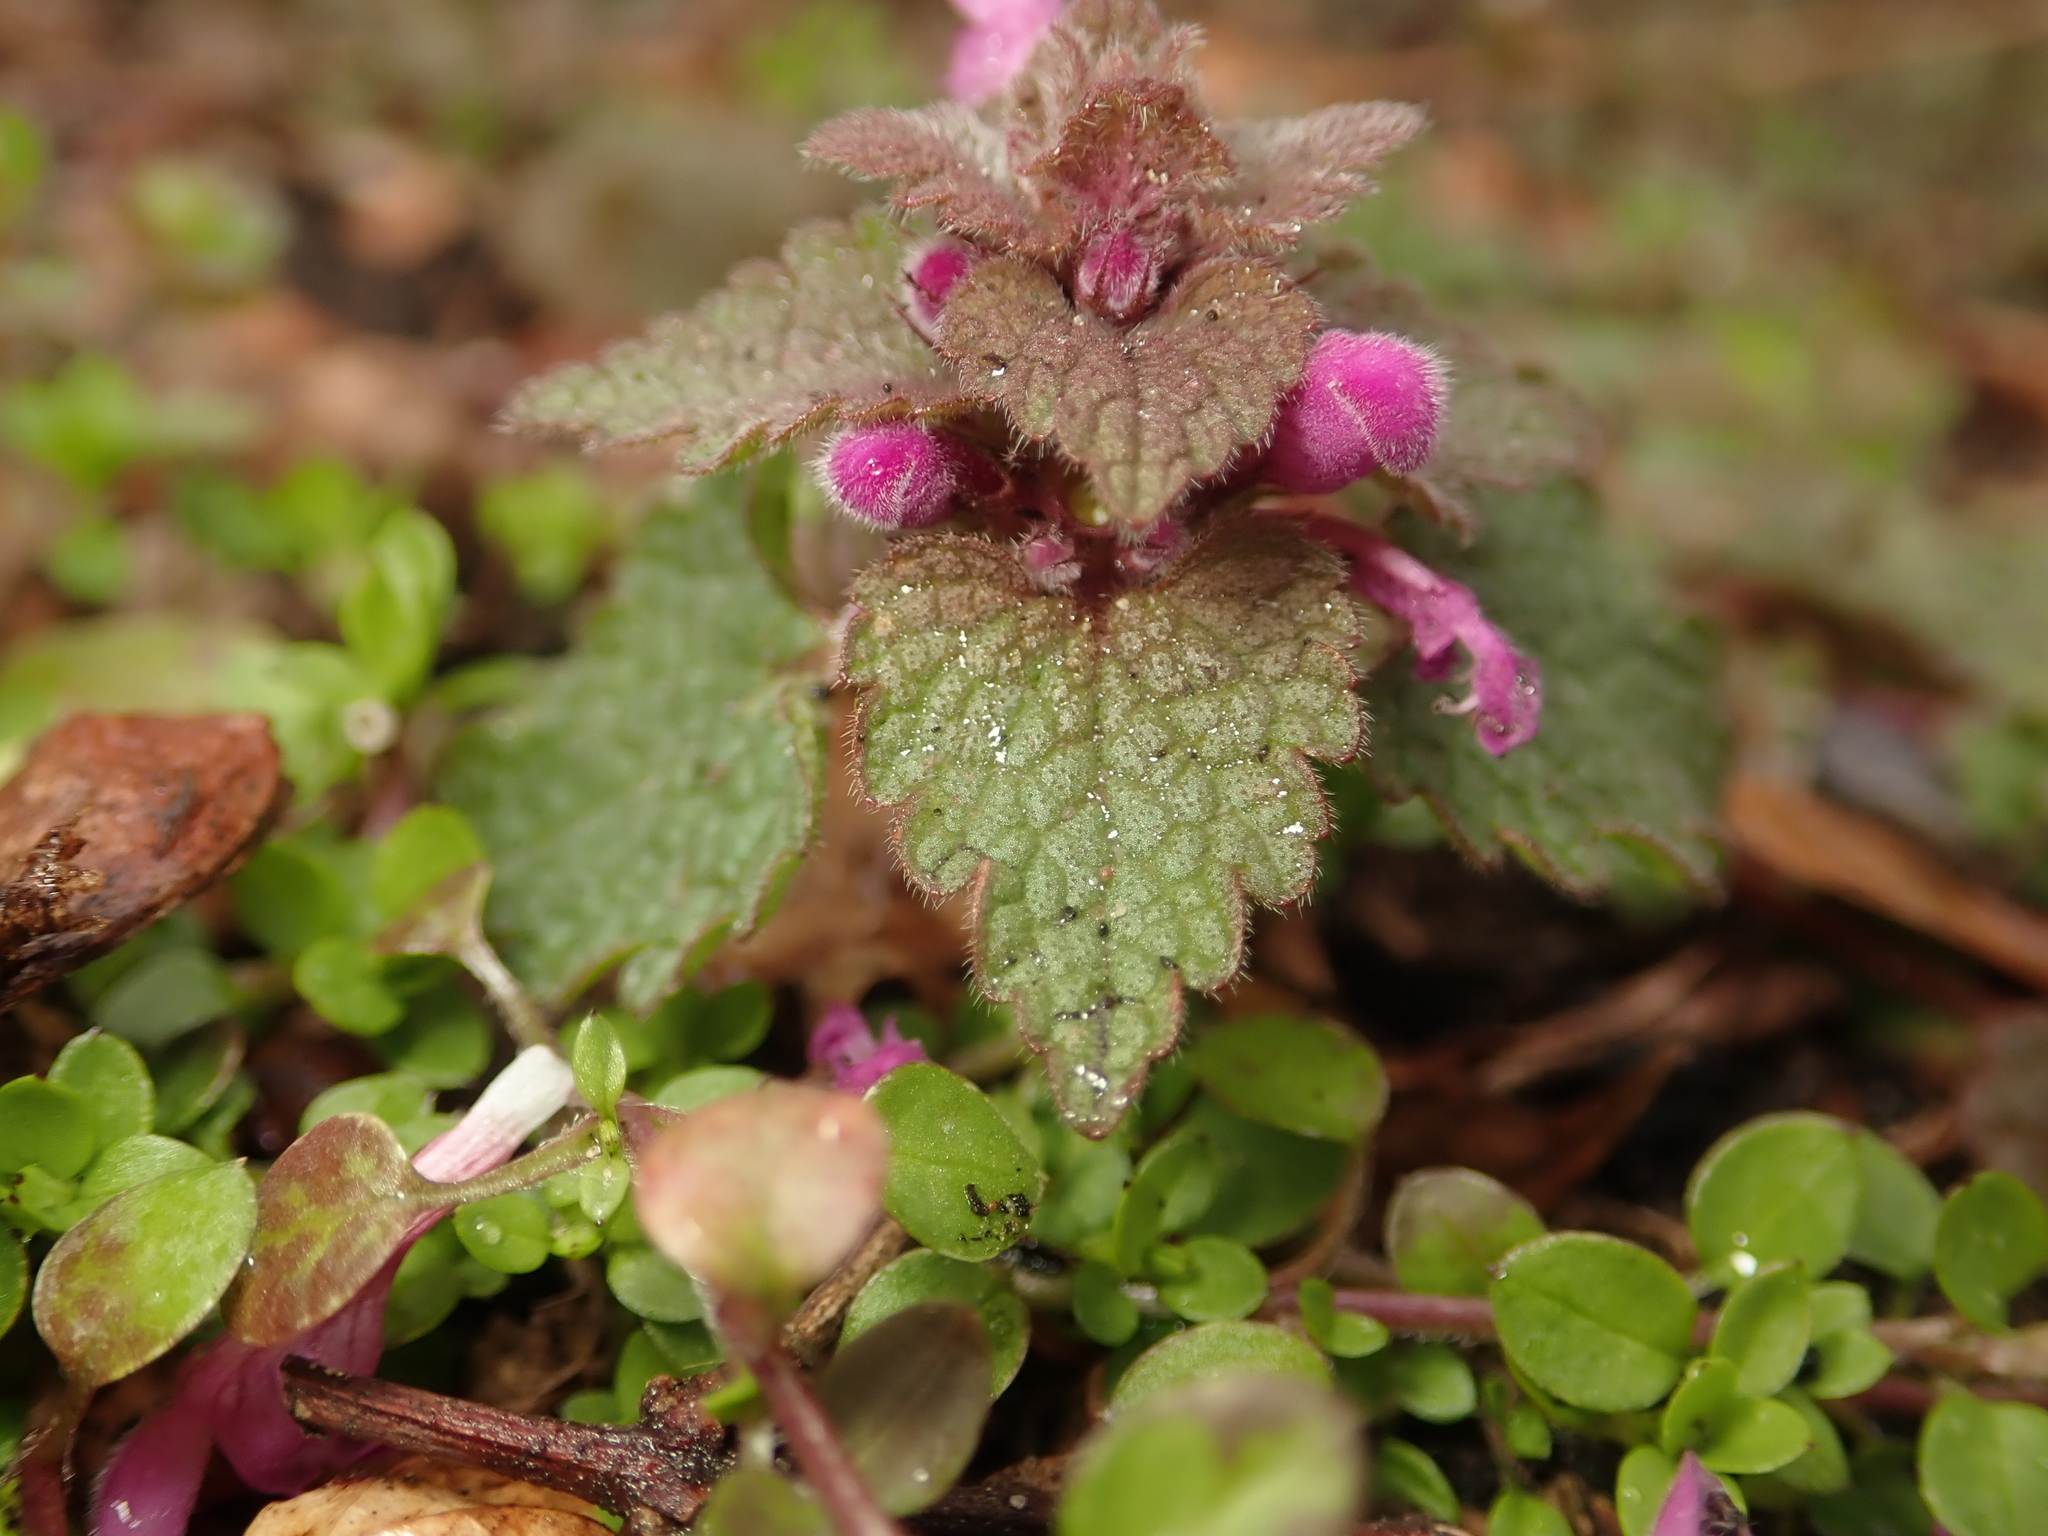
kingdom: Plantae
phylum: Tracheophyta
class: Magnoliopsida
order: Lamiales
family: Lamiaceae
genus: Lamium
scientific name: Lamium purpureum
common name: Red dead-nettle
